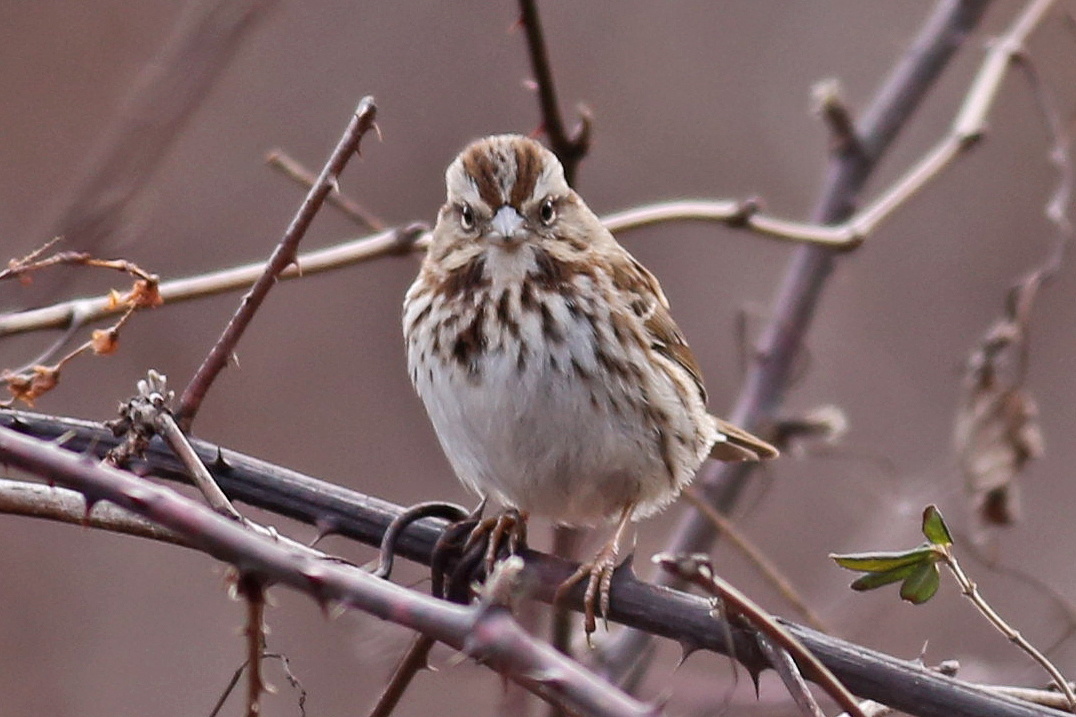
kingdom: Animalia
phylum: Chordata
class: Aves
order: Passeriformes
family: Passerellidae
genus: Melospiza
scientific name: Melospiza melodia
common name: Song sparrow
